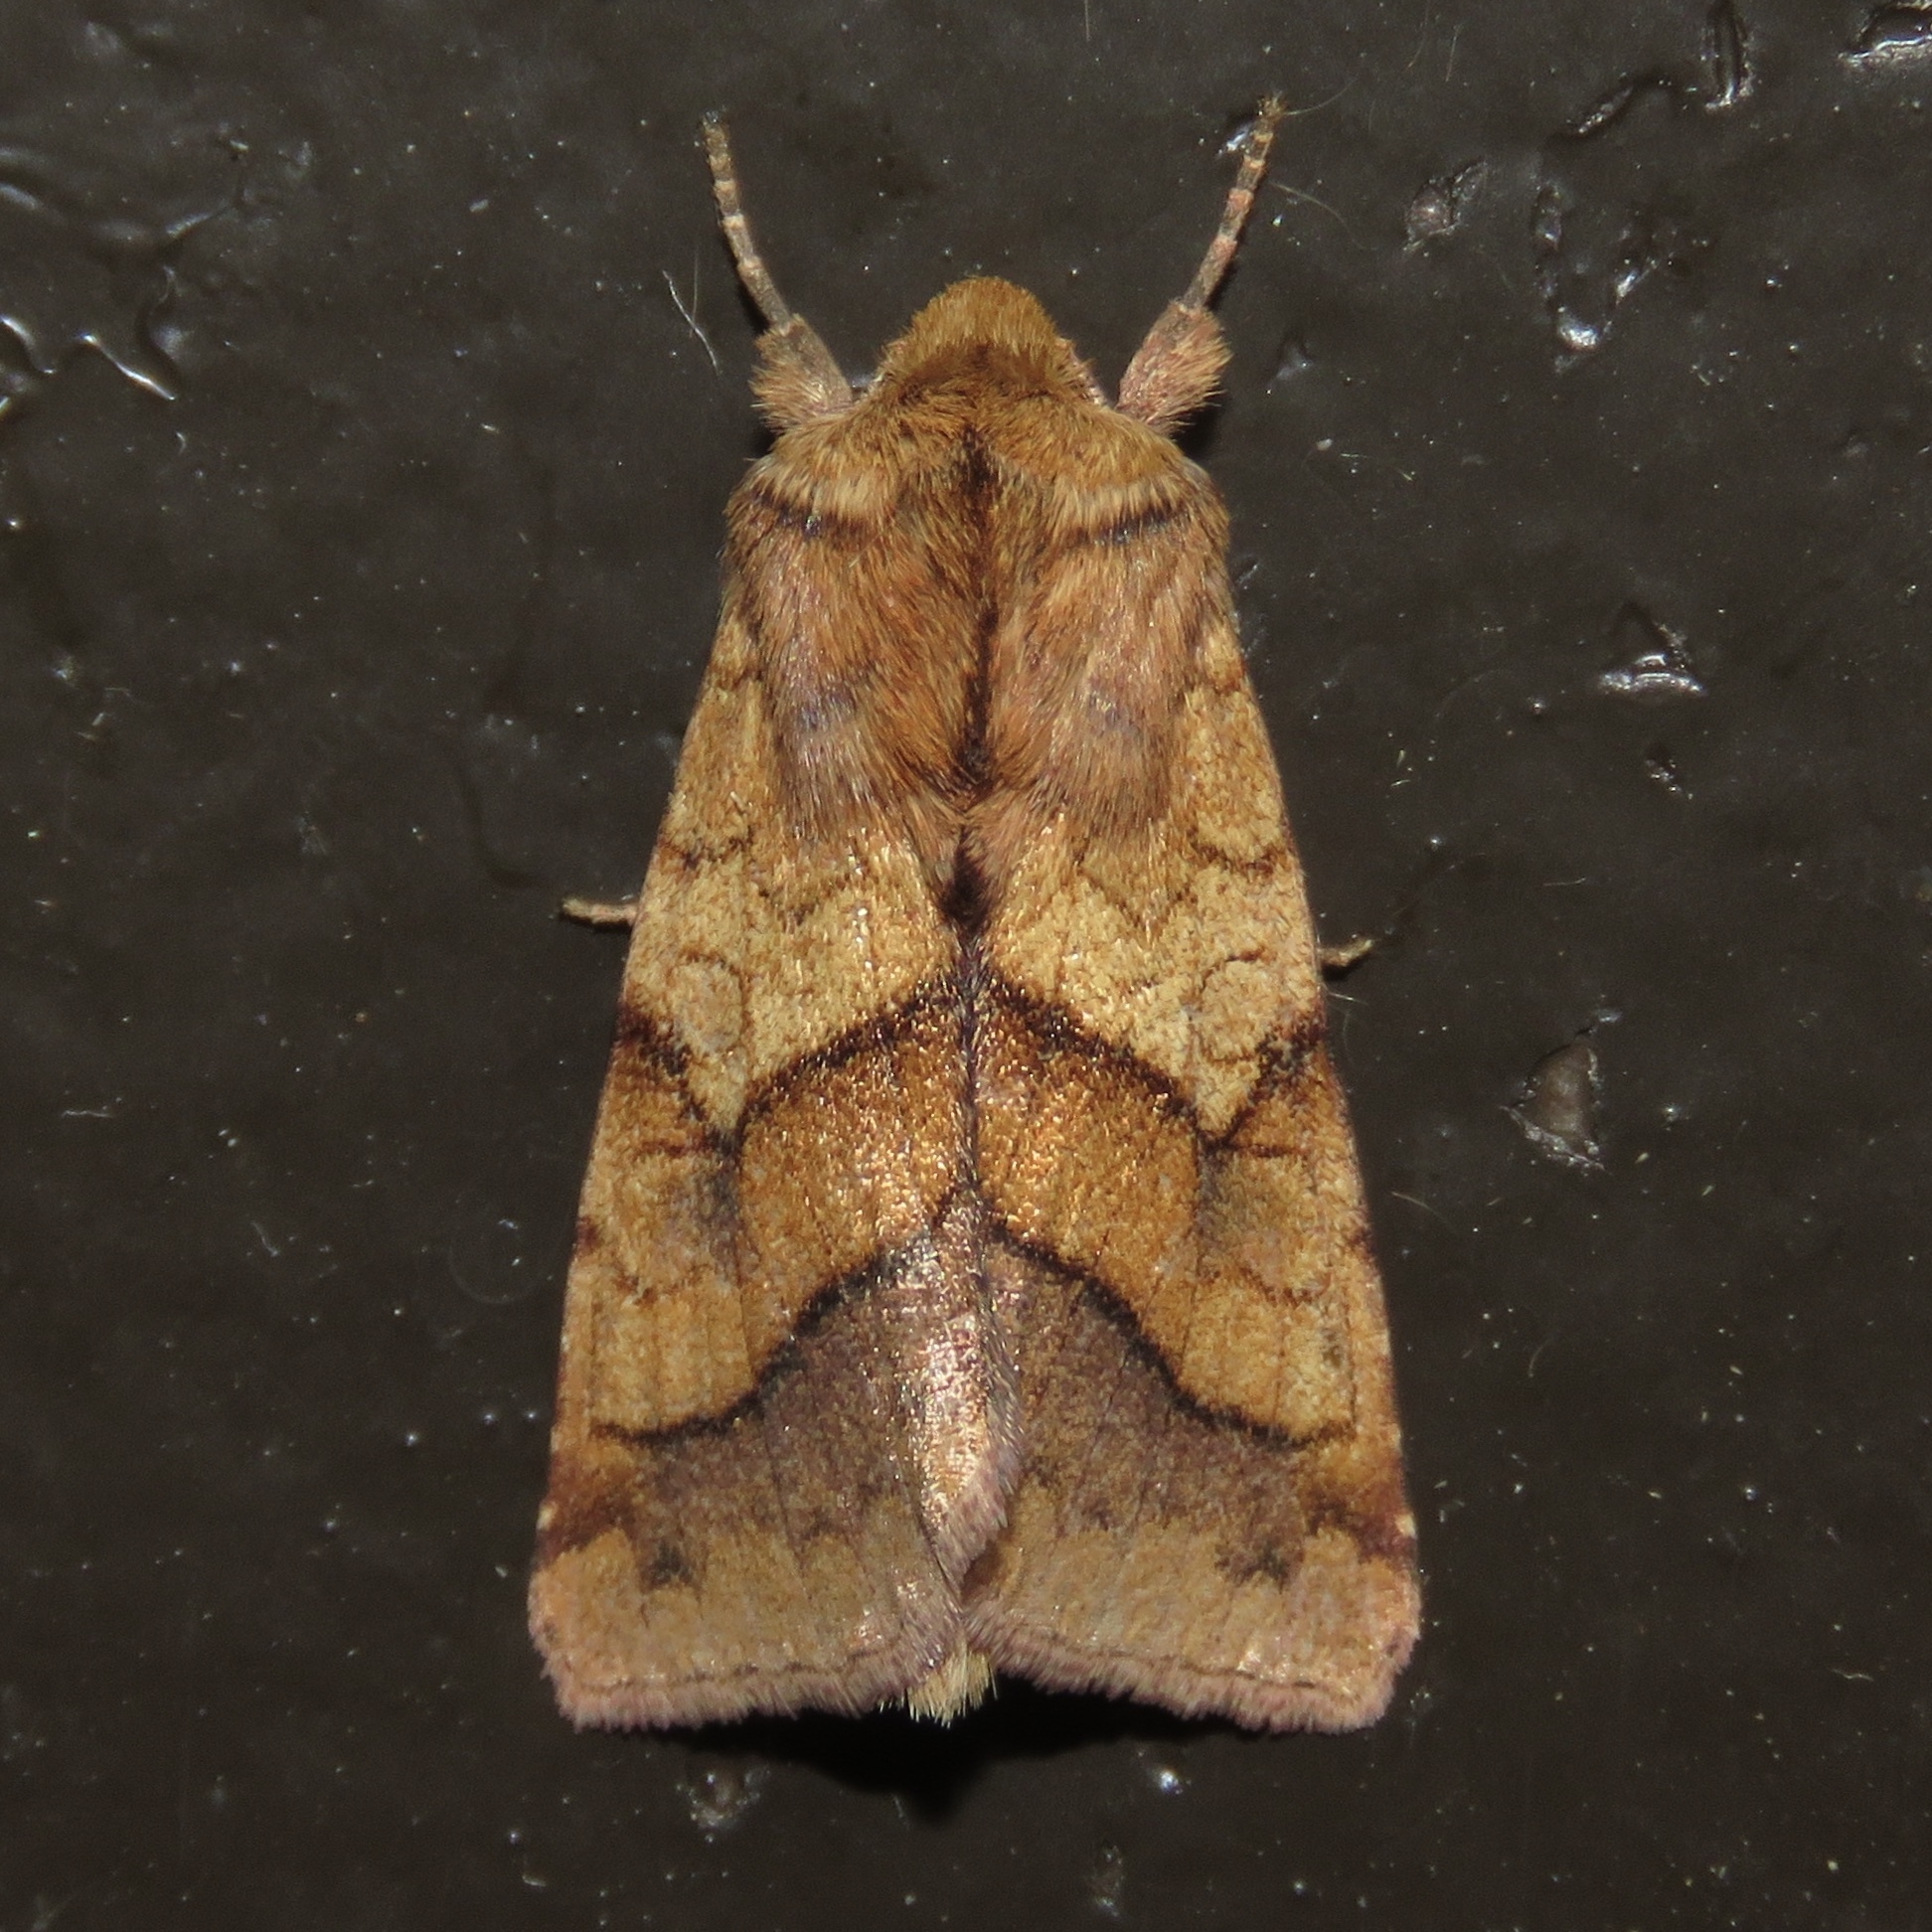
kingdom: Animalia
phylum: Arthropoda
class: Insecta
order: Lepidoptera
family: Noctuidae
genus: Pyrrhia
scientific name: Pyrrhia exprimens
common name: Purple-lined sallow
